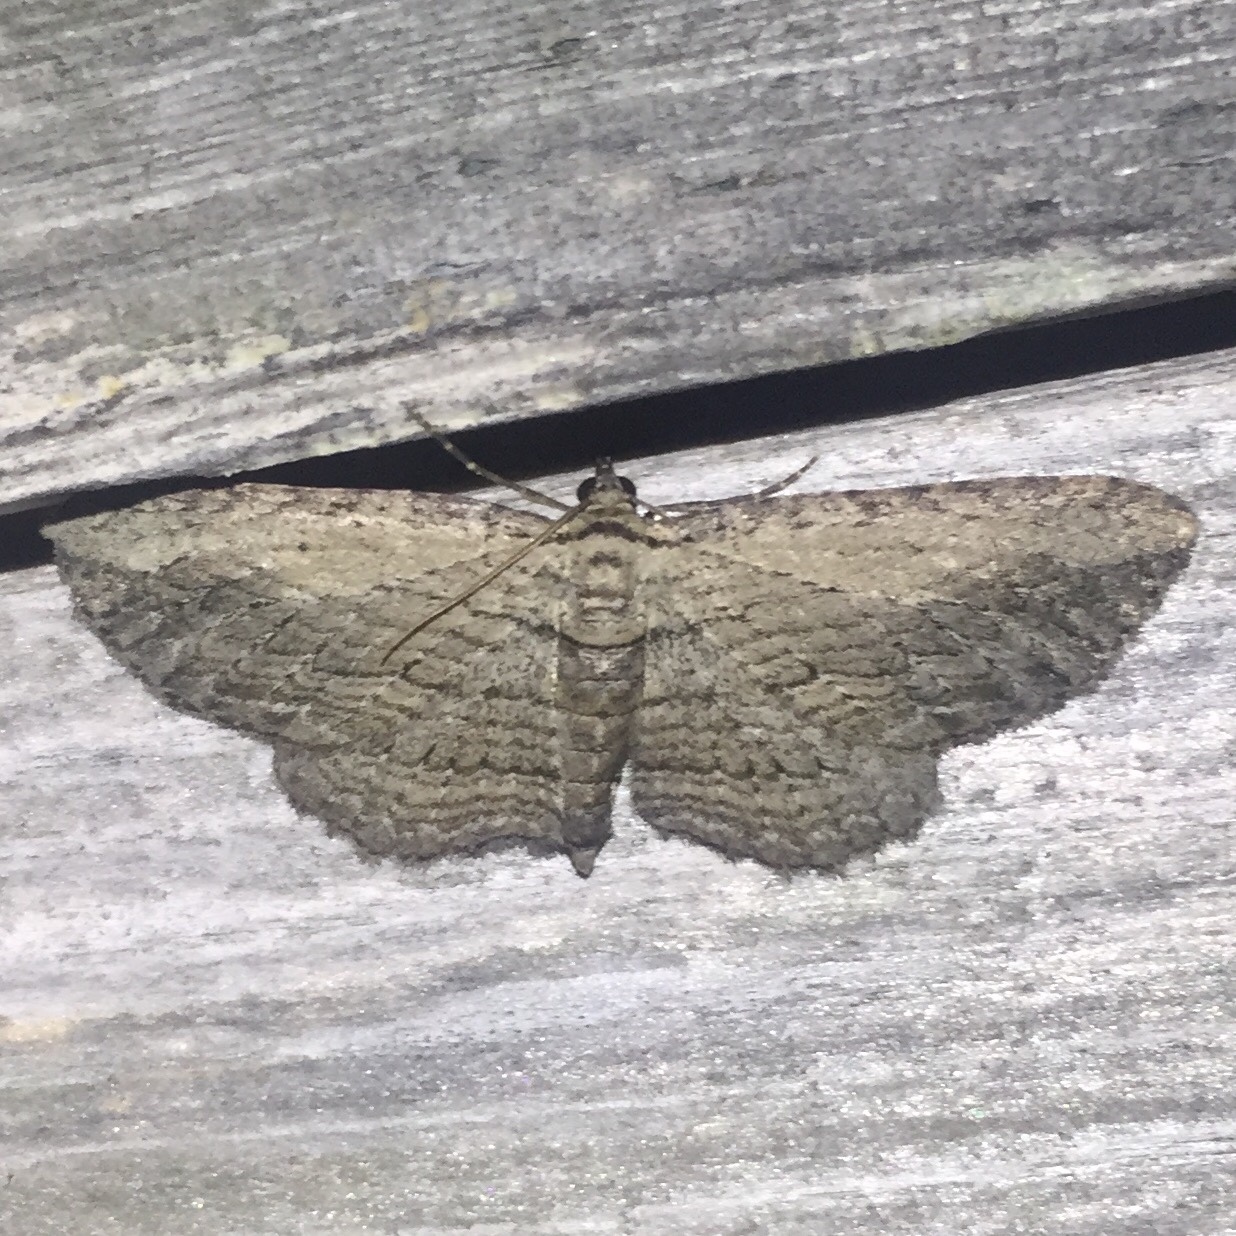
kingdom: Animalia
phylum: Arthropoda
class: Insecta
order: Lepidoptera
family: Geometridae
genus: Horisme
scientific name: Horisme intestinata
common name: Brown bark carpet
